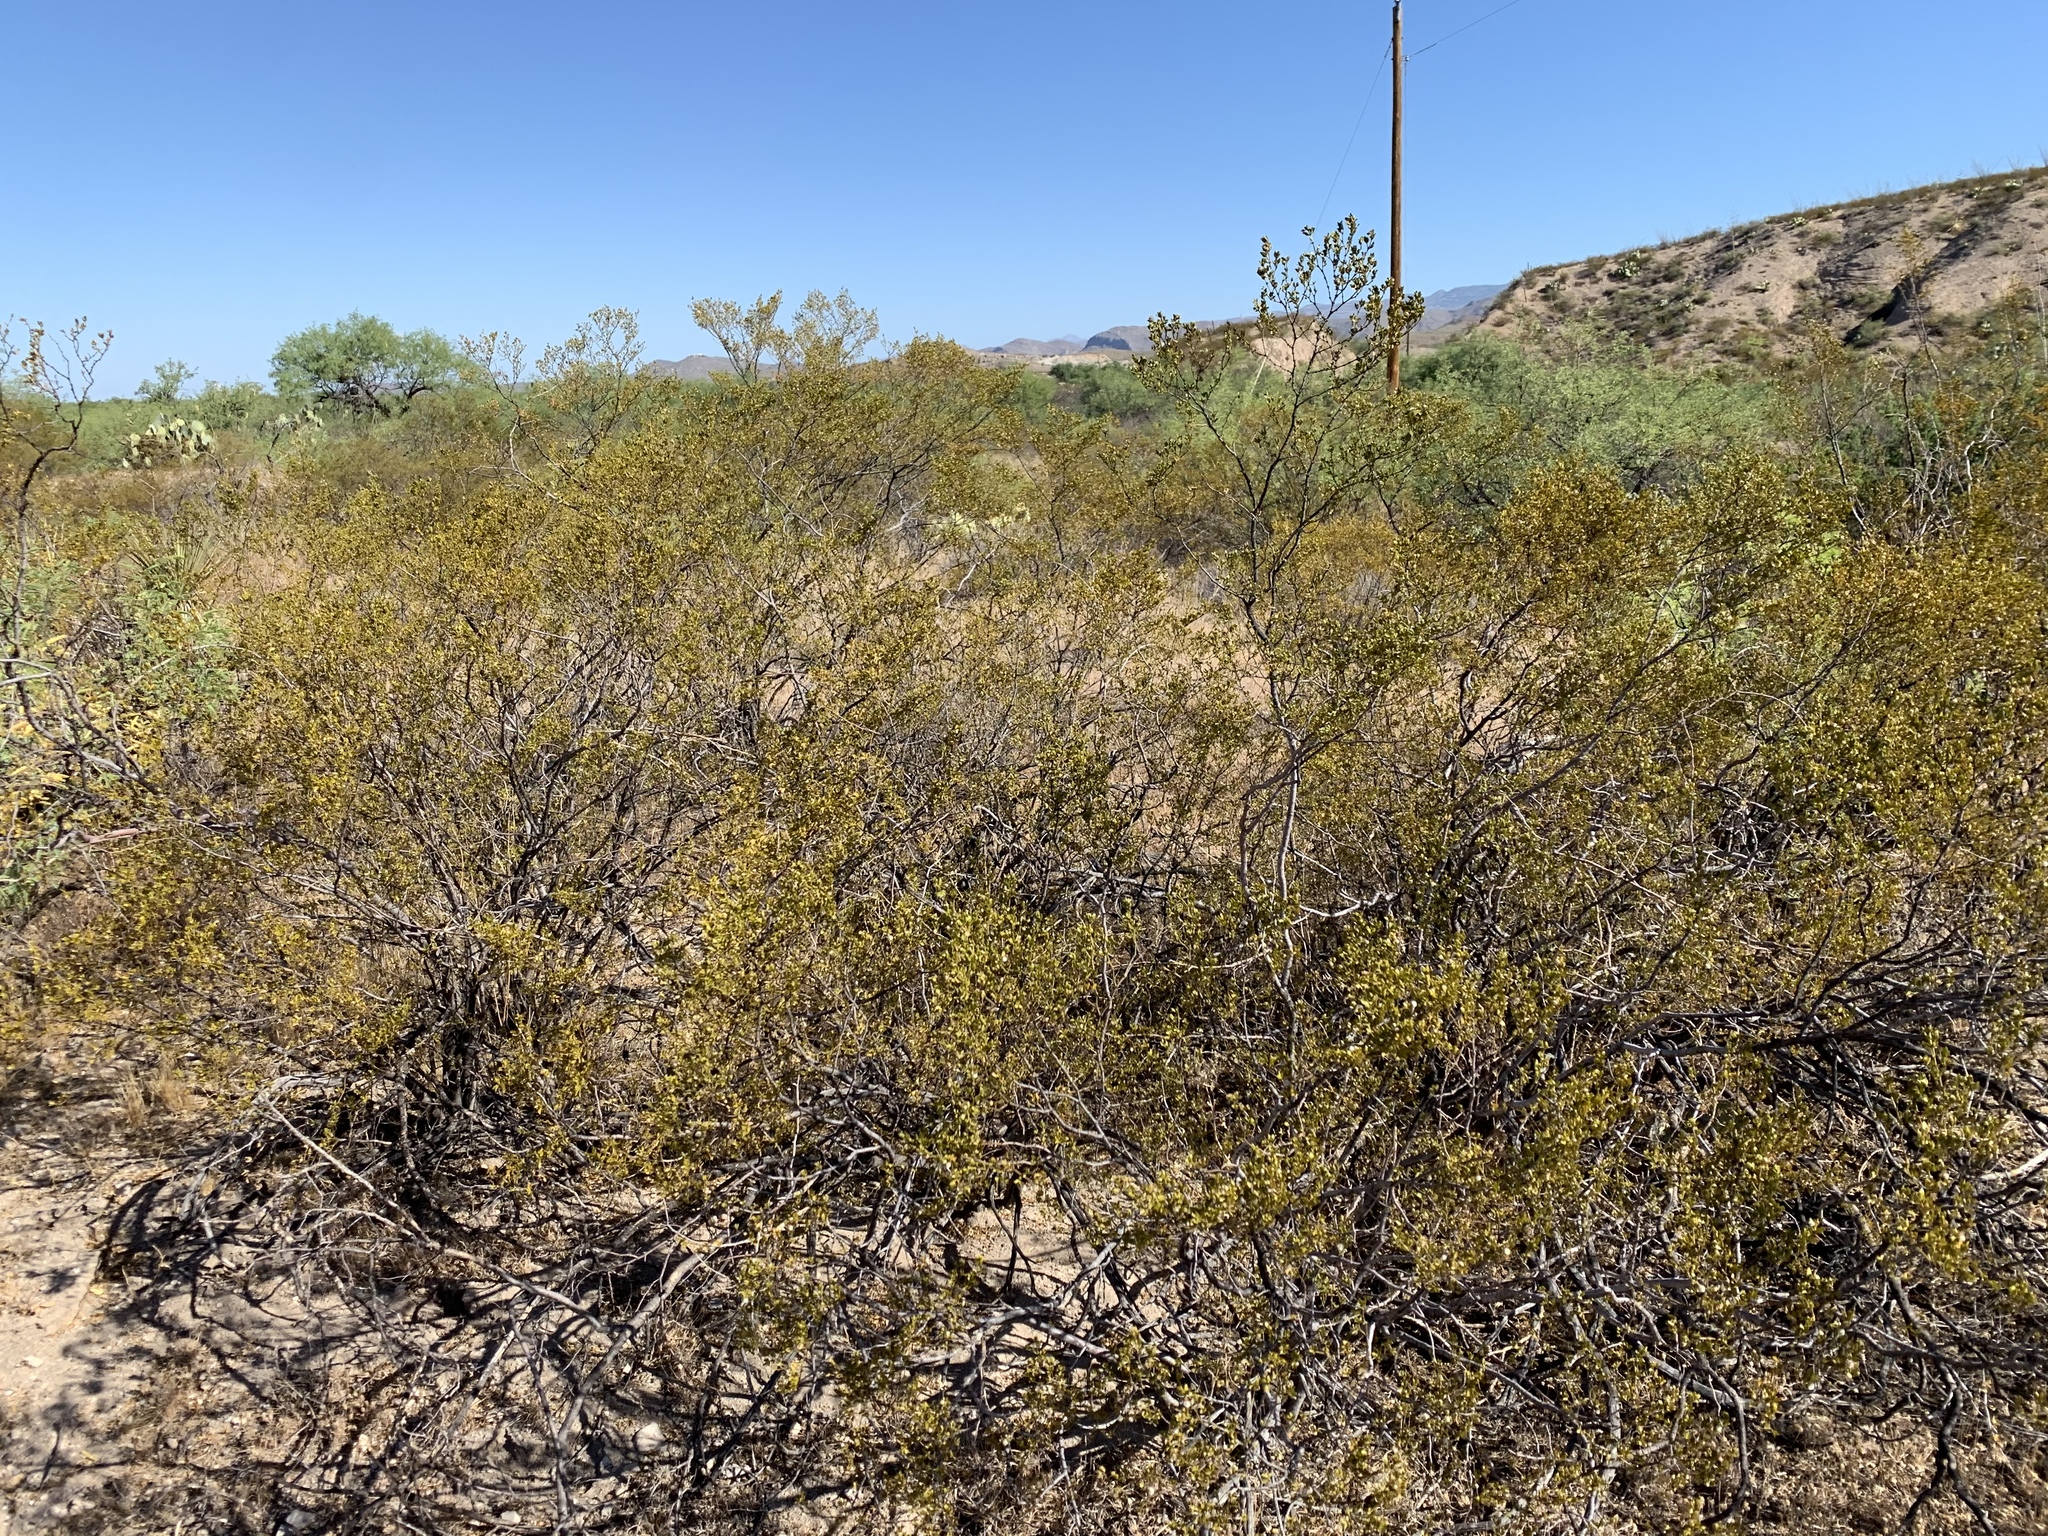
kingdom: Plantae
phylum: Tracheophyta
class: Magnoliopsida
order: Zygophyllales
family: Zygophyllaceae
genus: Larrea
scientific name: Larrea tridentata
